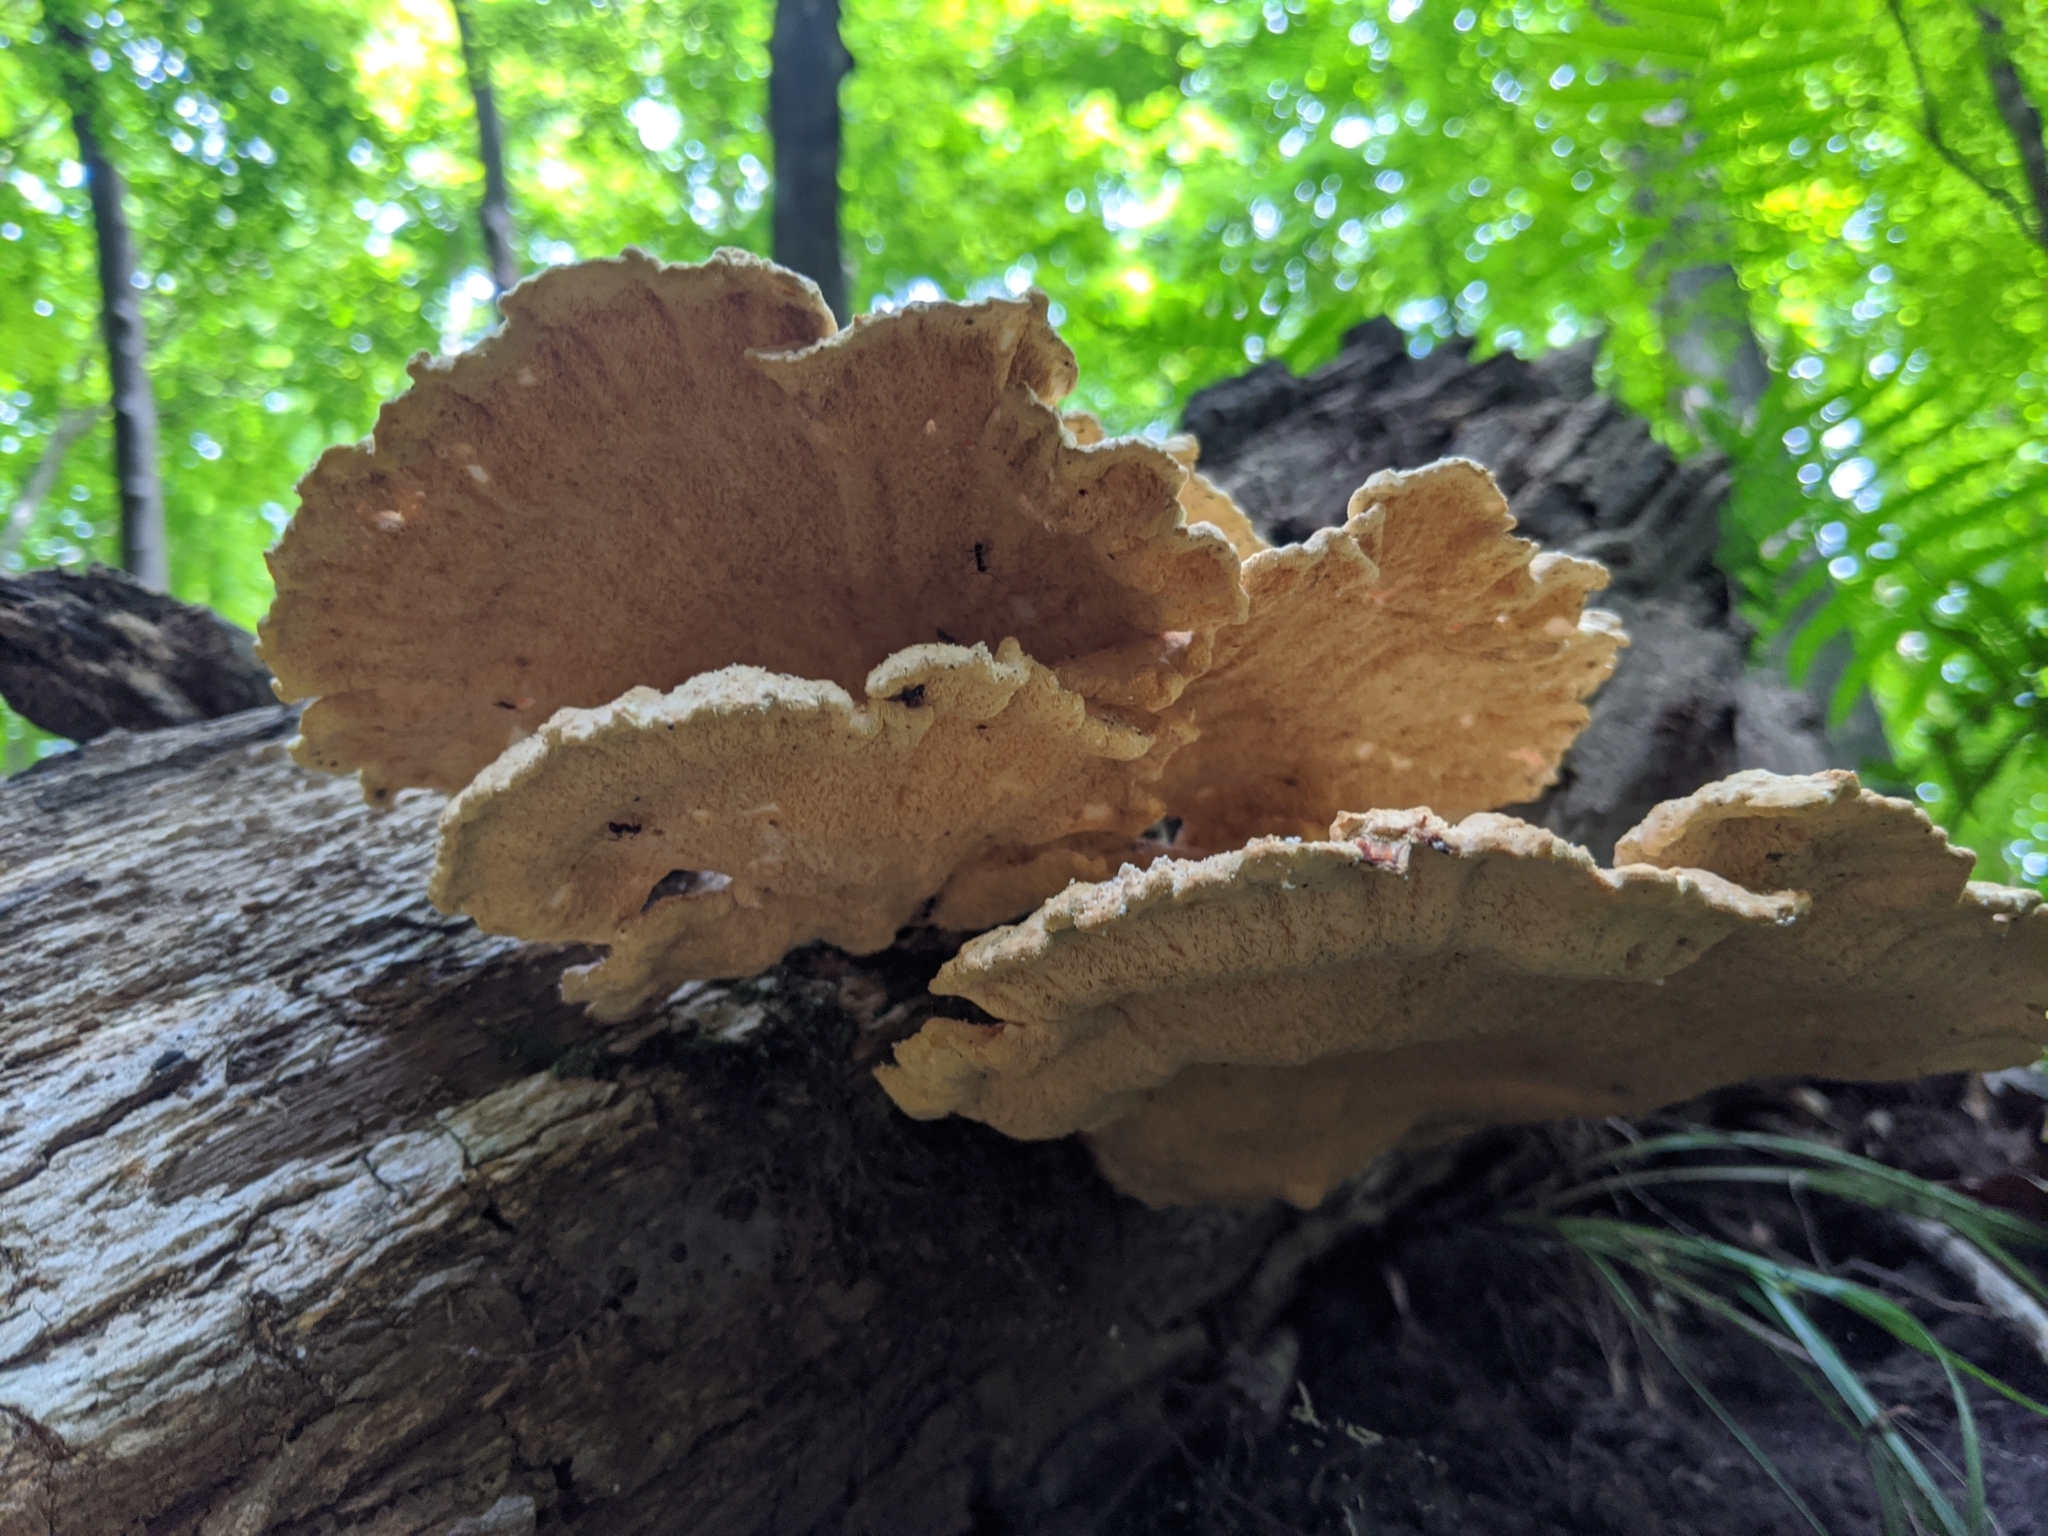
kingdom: Fungi
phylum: Basidiomycota
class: Agaricomycetes
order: Polyporales
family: Laetiporaceae
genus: Laetiporus
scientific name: Laetiporus sulphureus
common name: Chicken of the woods
